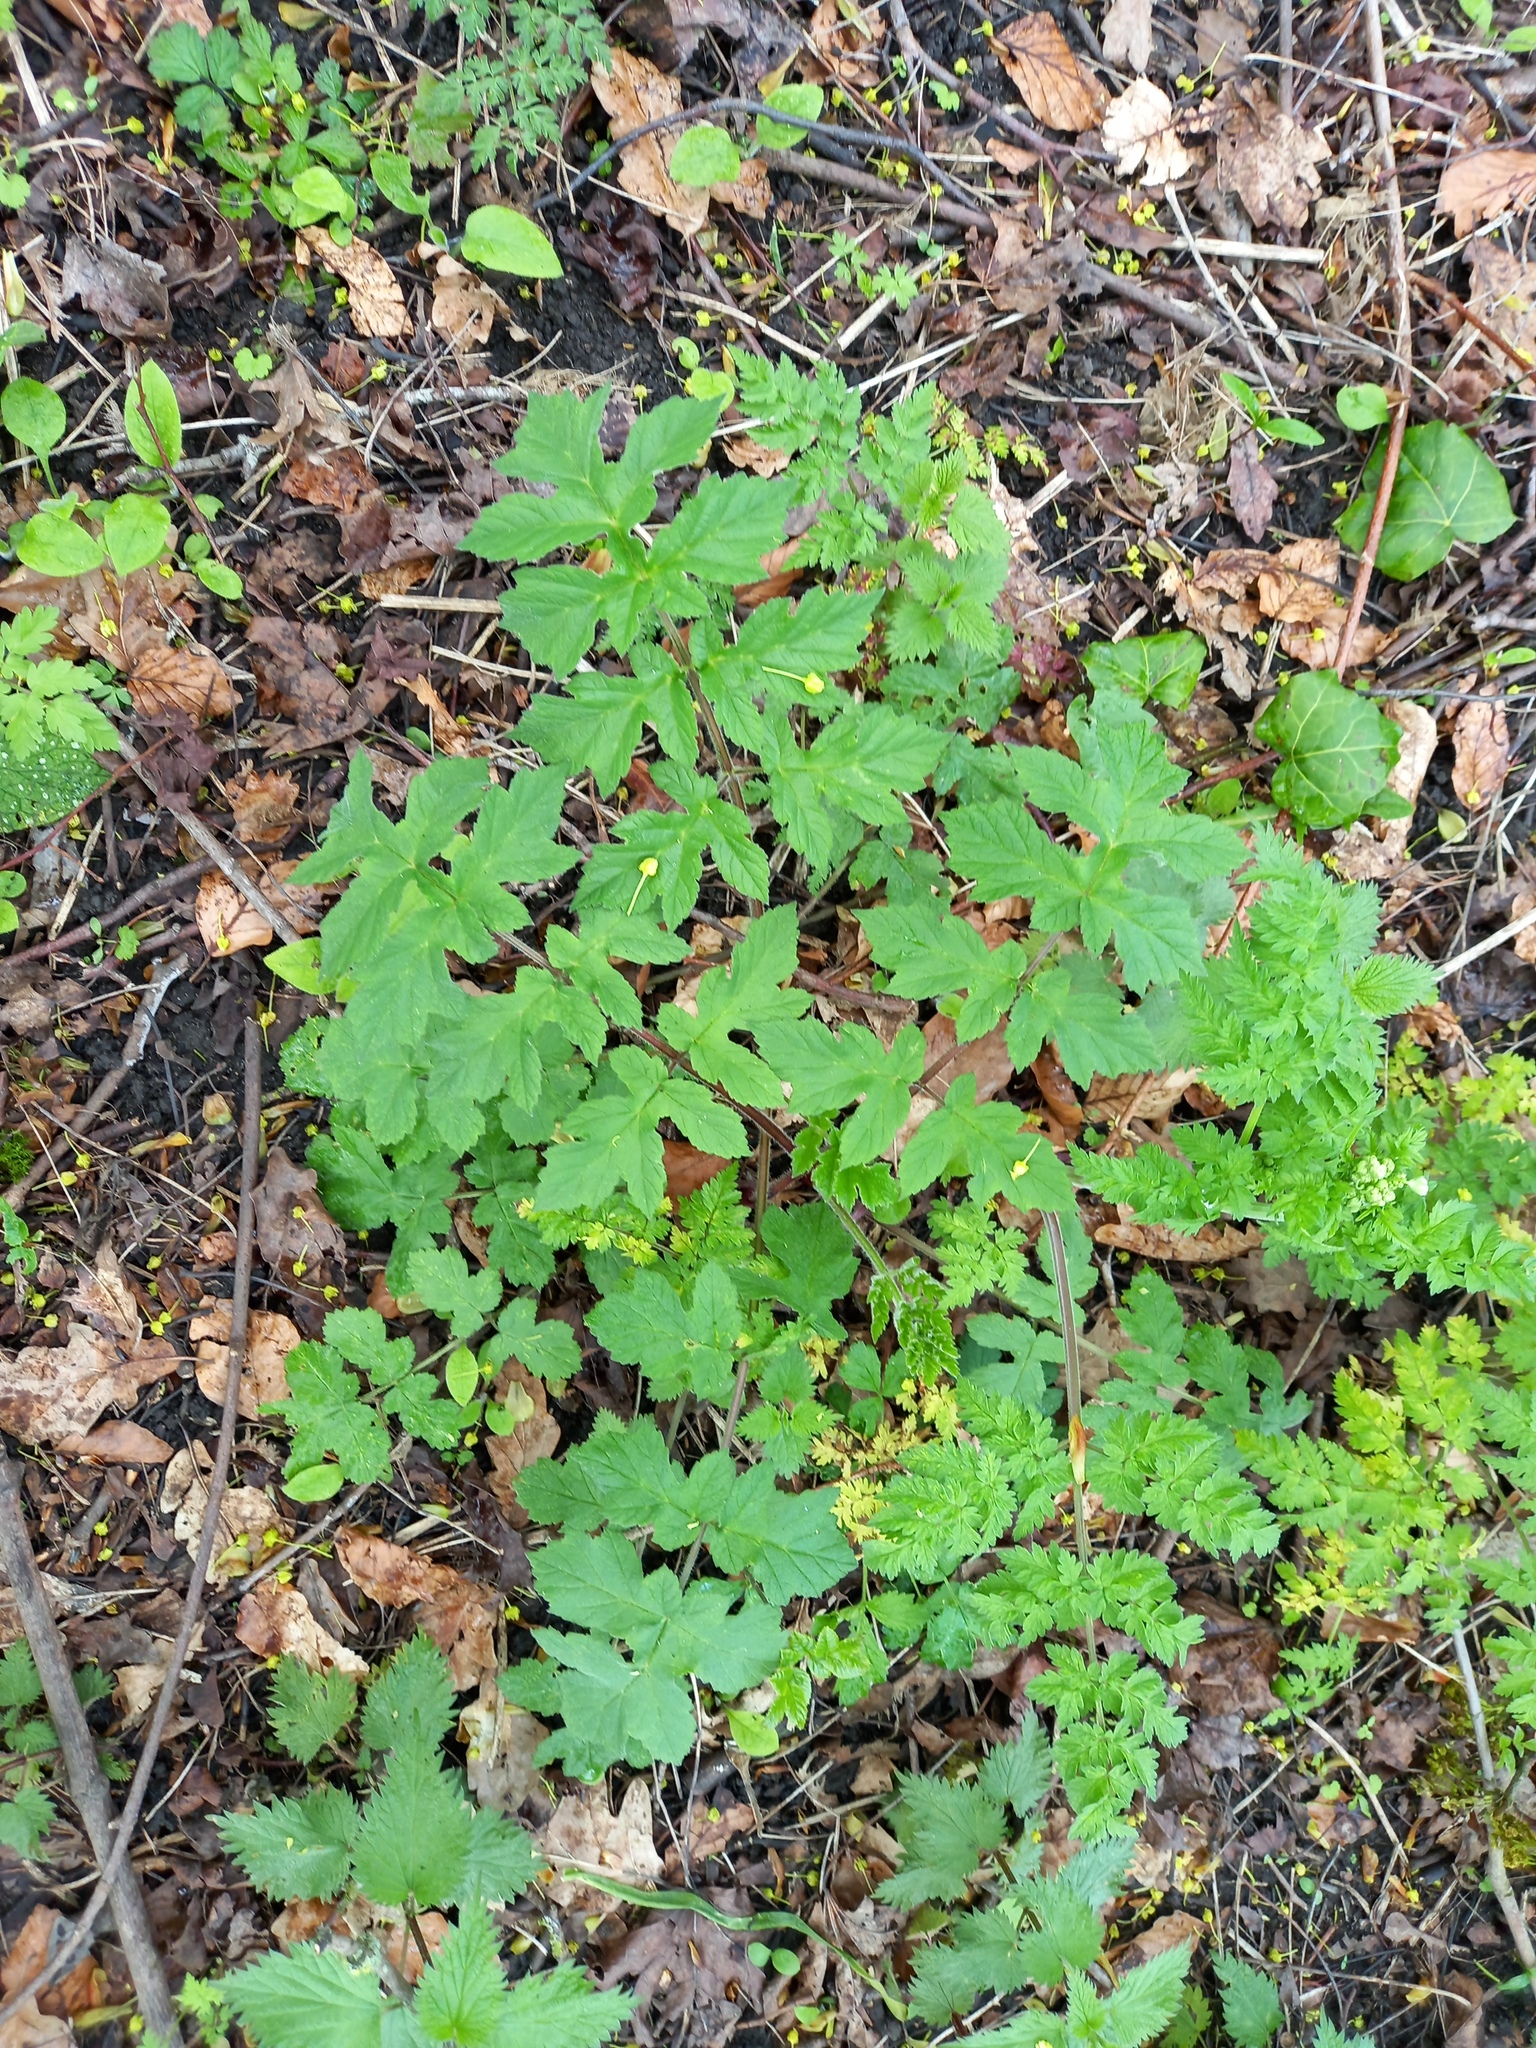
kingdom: Plantae
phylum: Tracheophyta
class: Magnoliopsida
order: Apiales
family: Apiaceae
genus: Heracleum
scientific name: Heracleum sphondylium
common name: Hogweed
